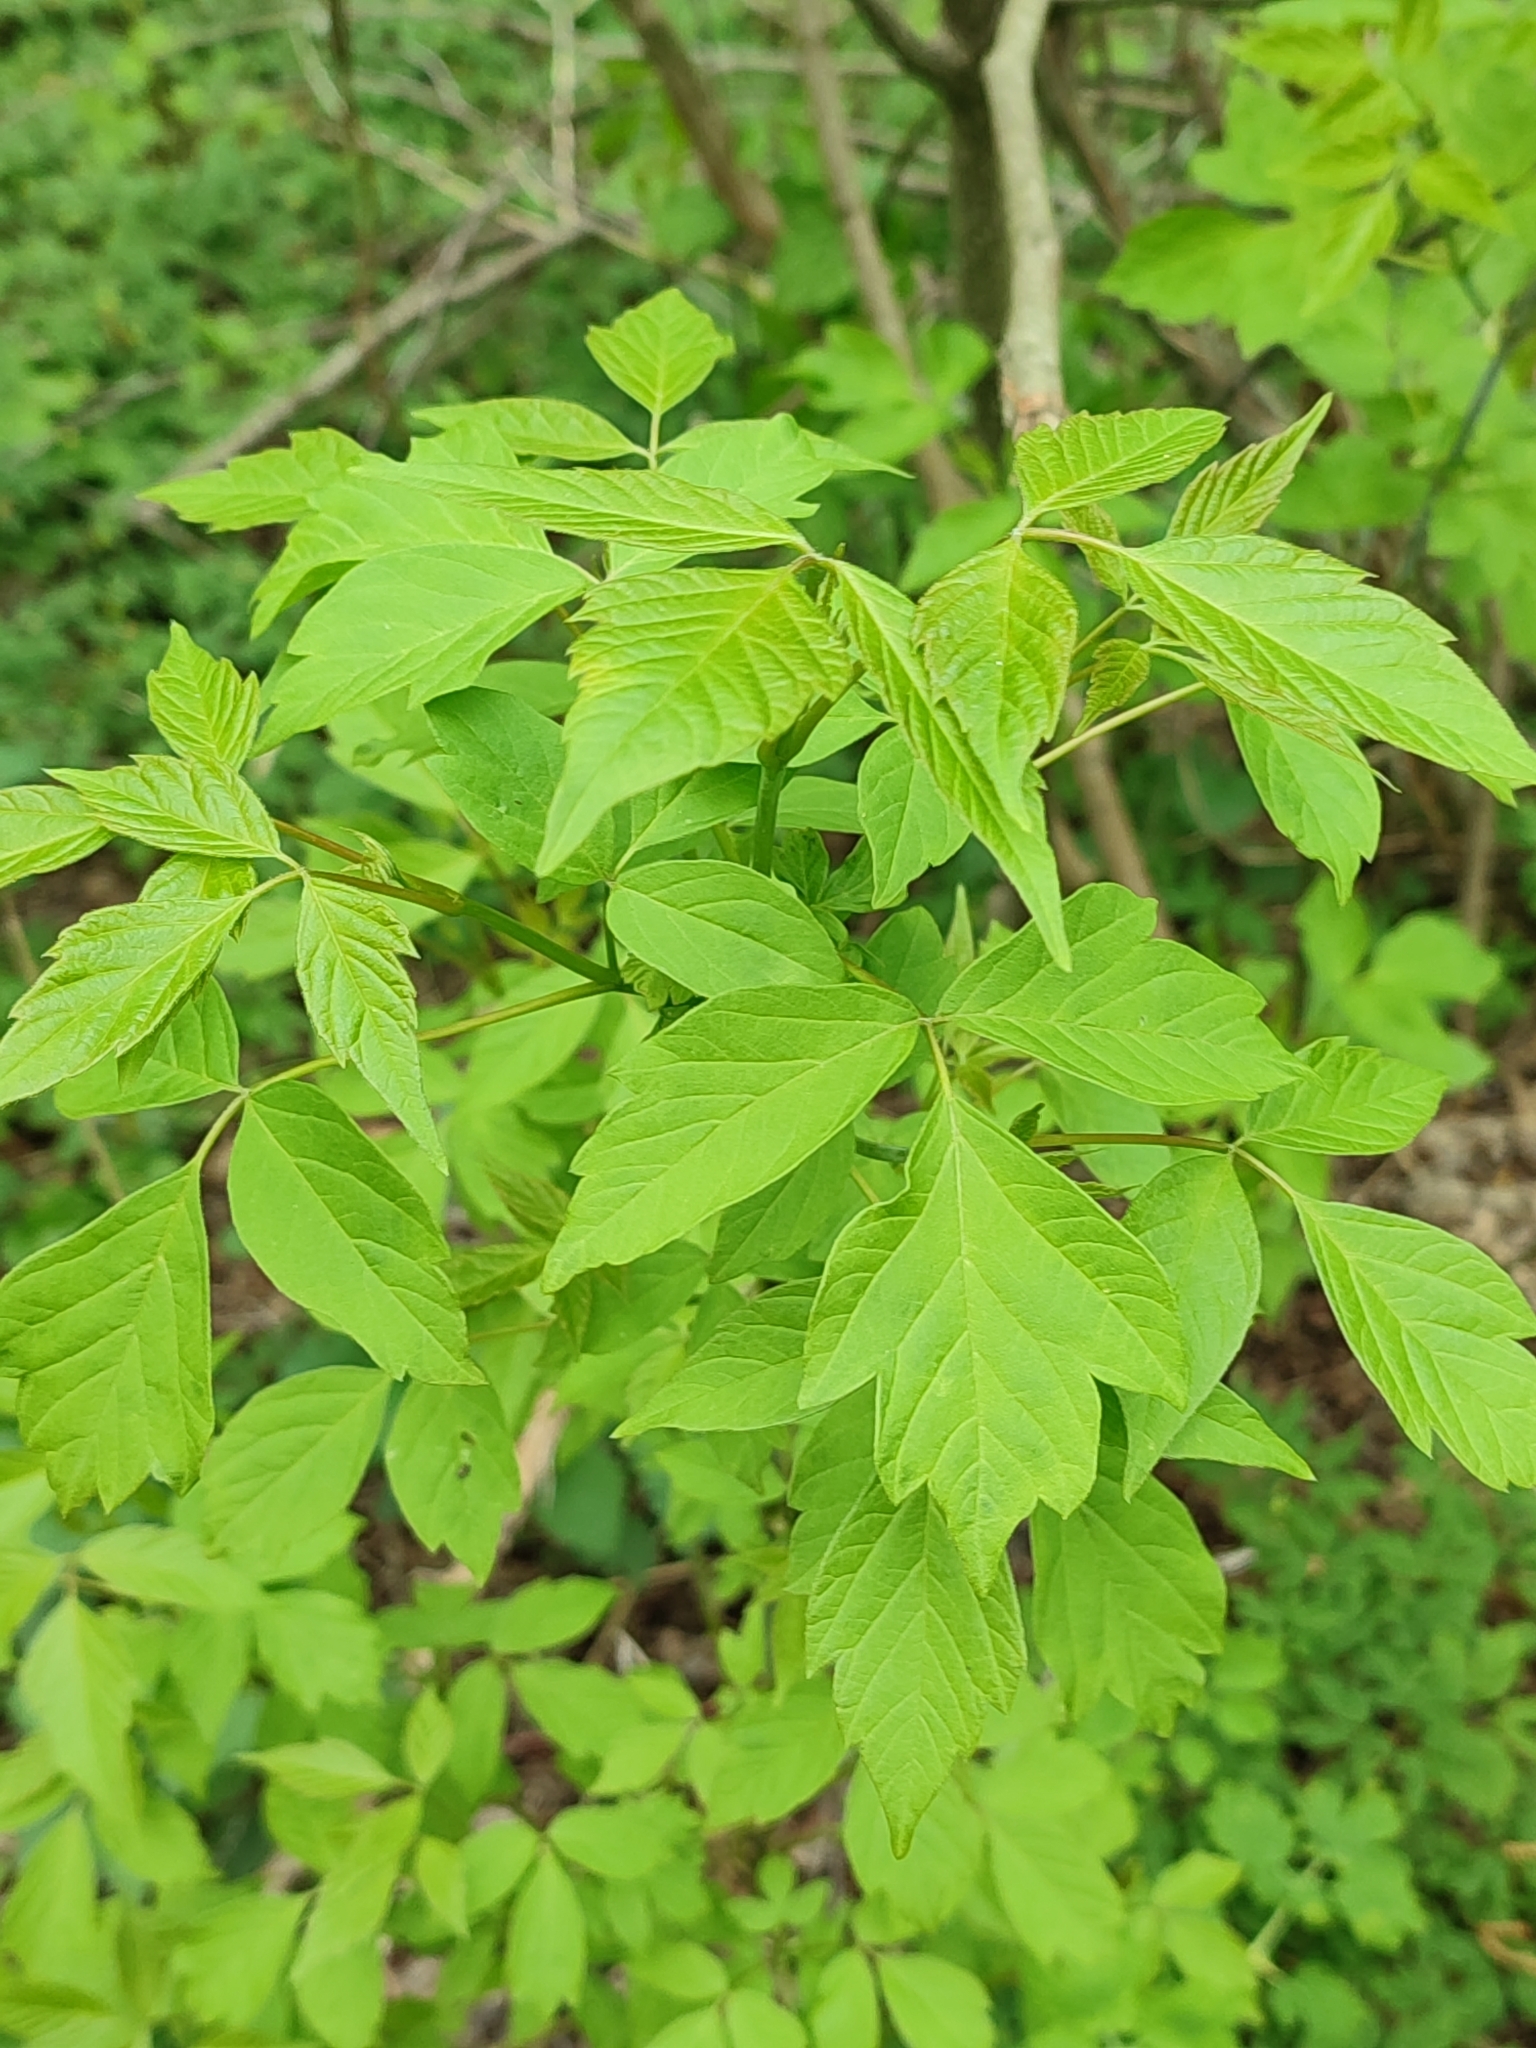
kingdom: Plantae
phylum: Tracheophyta
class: Magnoliopsida
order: Sapindales
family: Sapindaceae
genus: Acer
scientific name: Acer negundo
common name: Ashleaf maple
